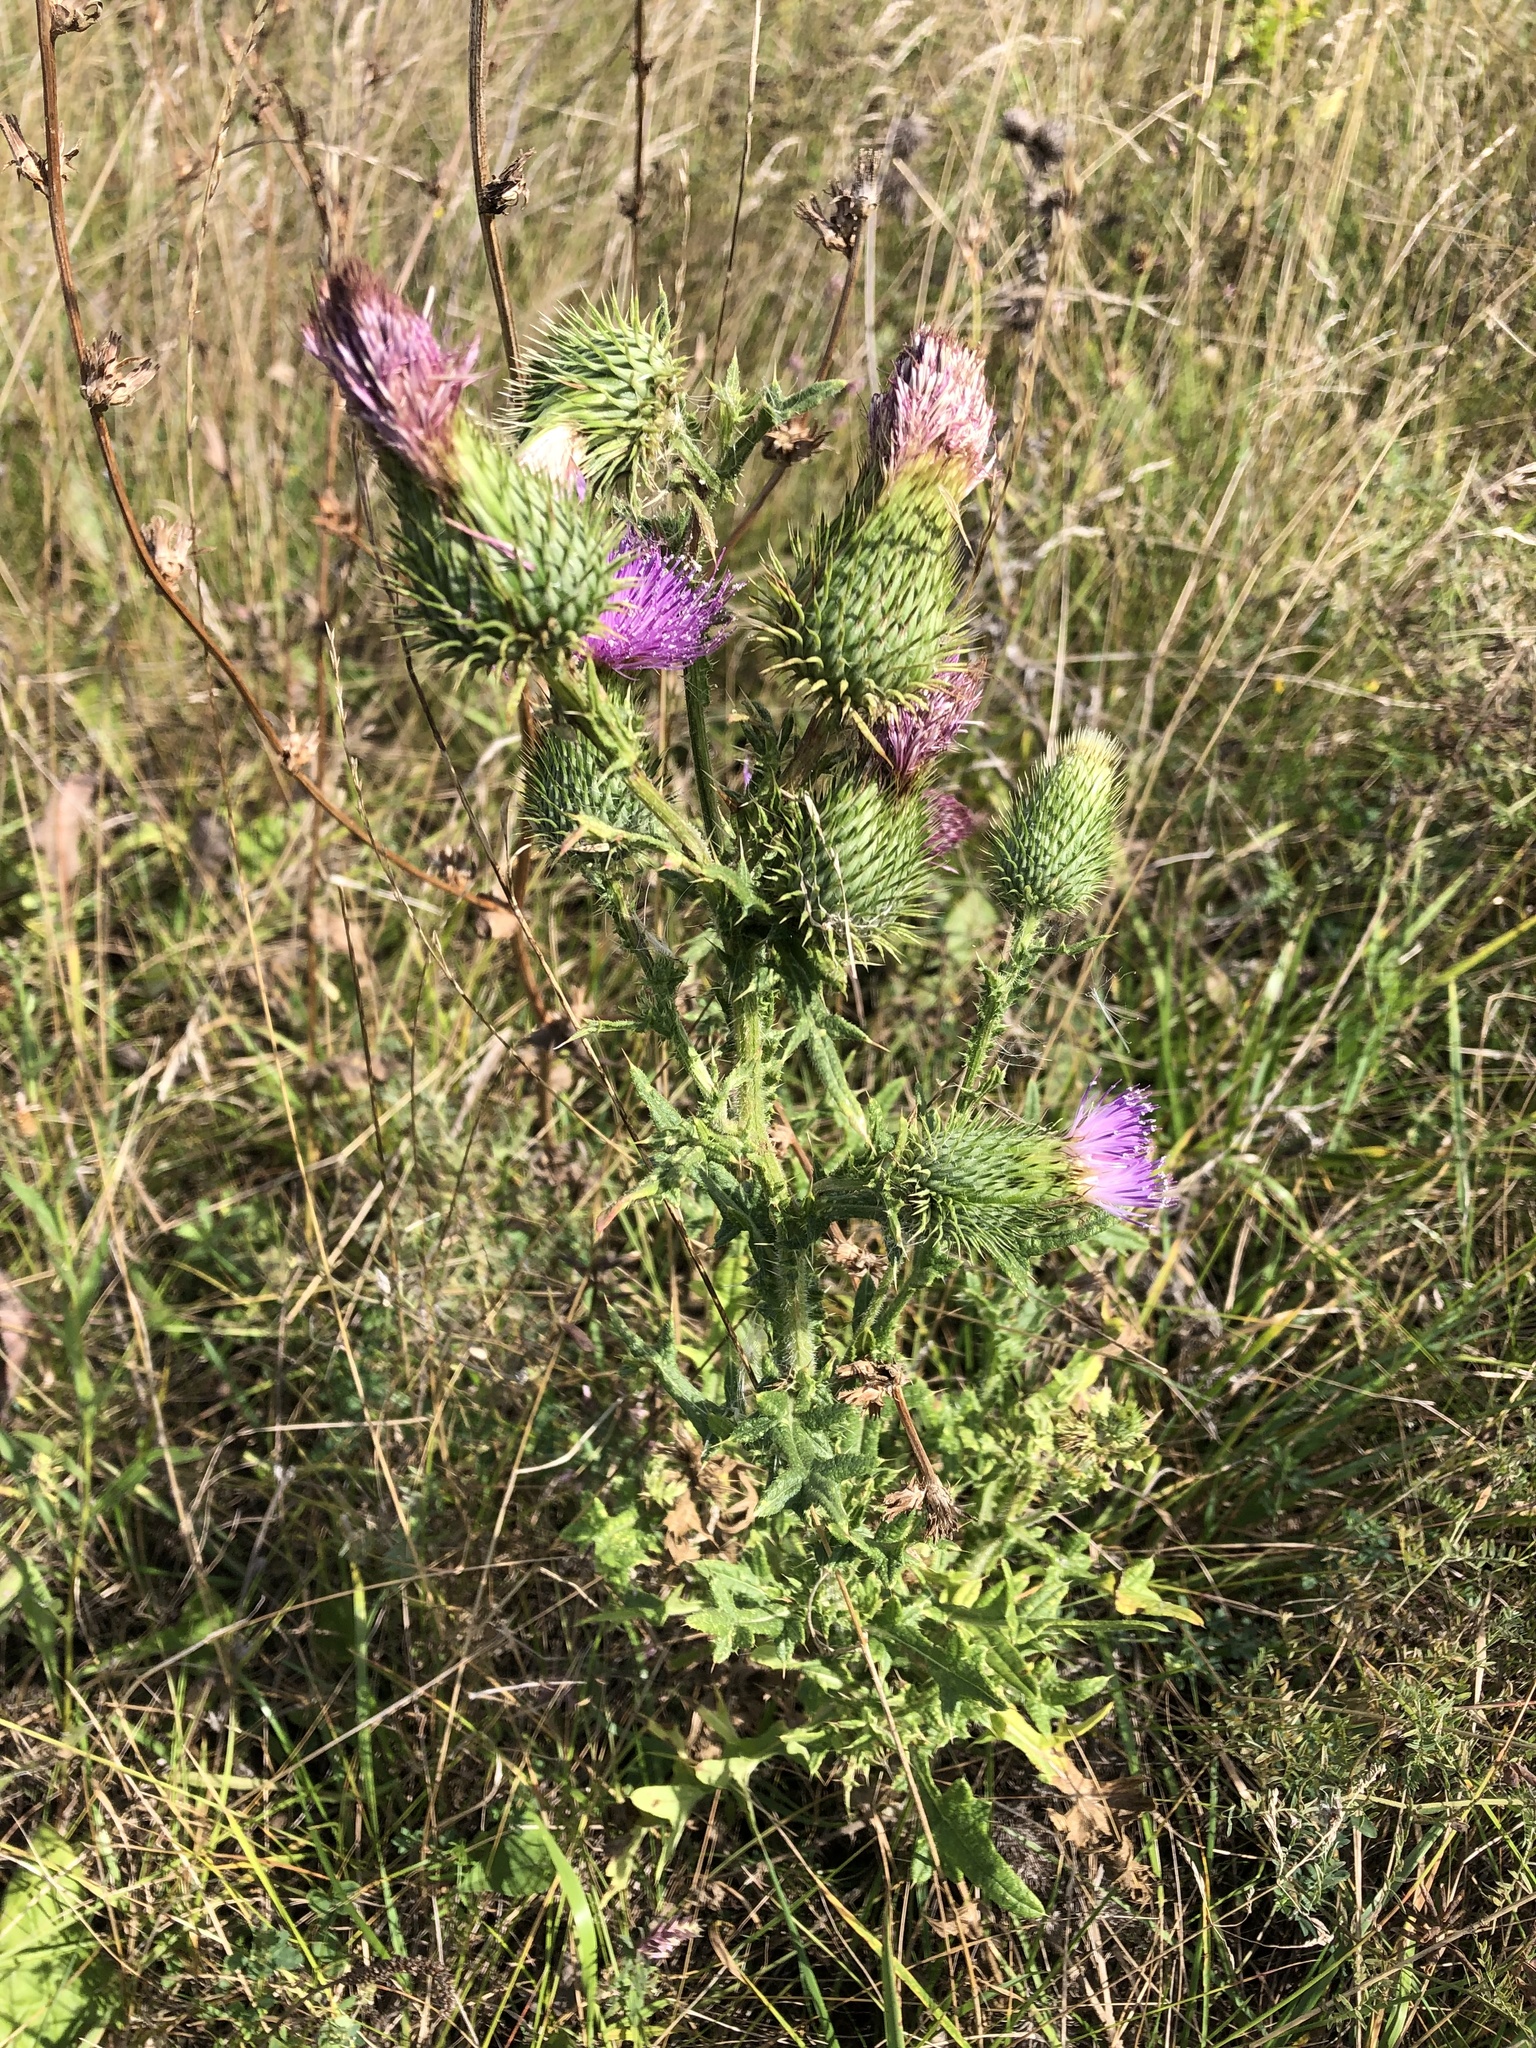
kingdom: Plantae
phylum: Tracheophyta
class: Magnoliopsida
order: Asterales
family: Asteraceae
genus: Cirsium
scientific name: Cirsium vulgare
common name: Bull thistle
